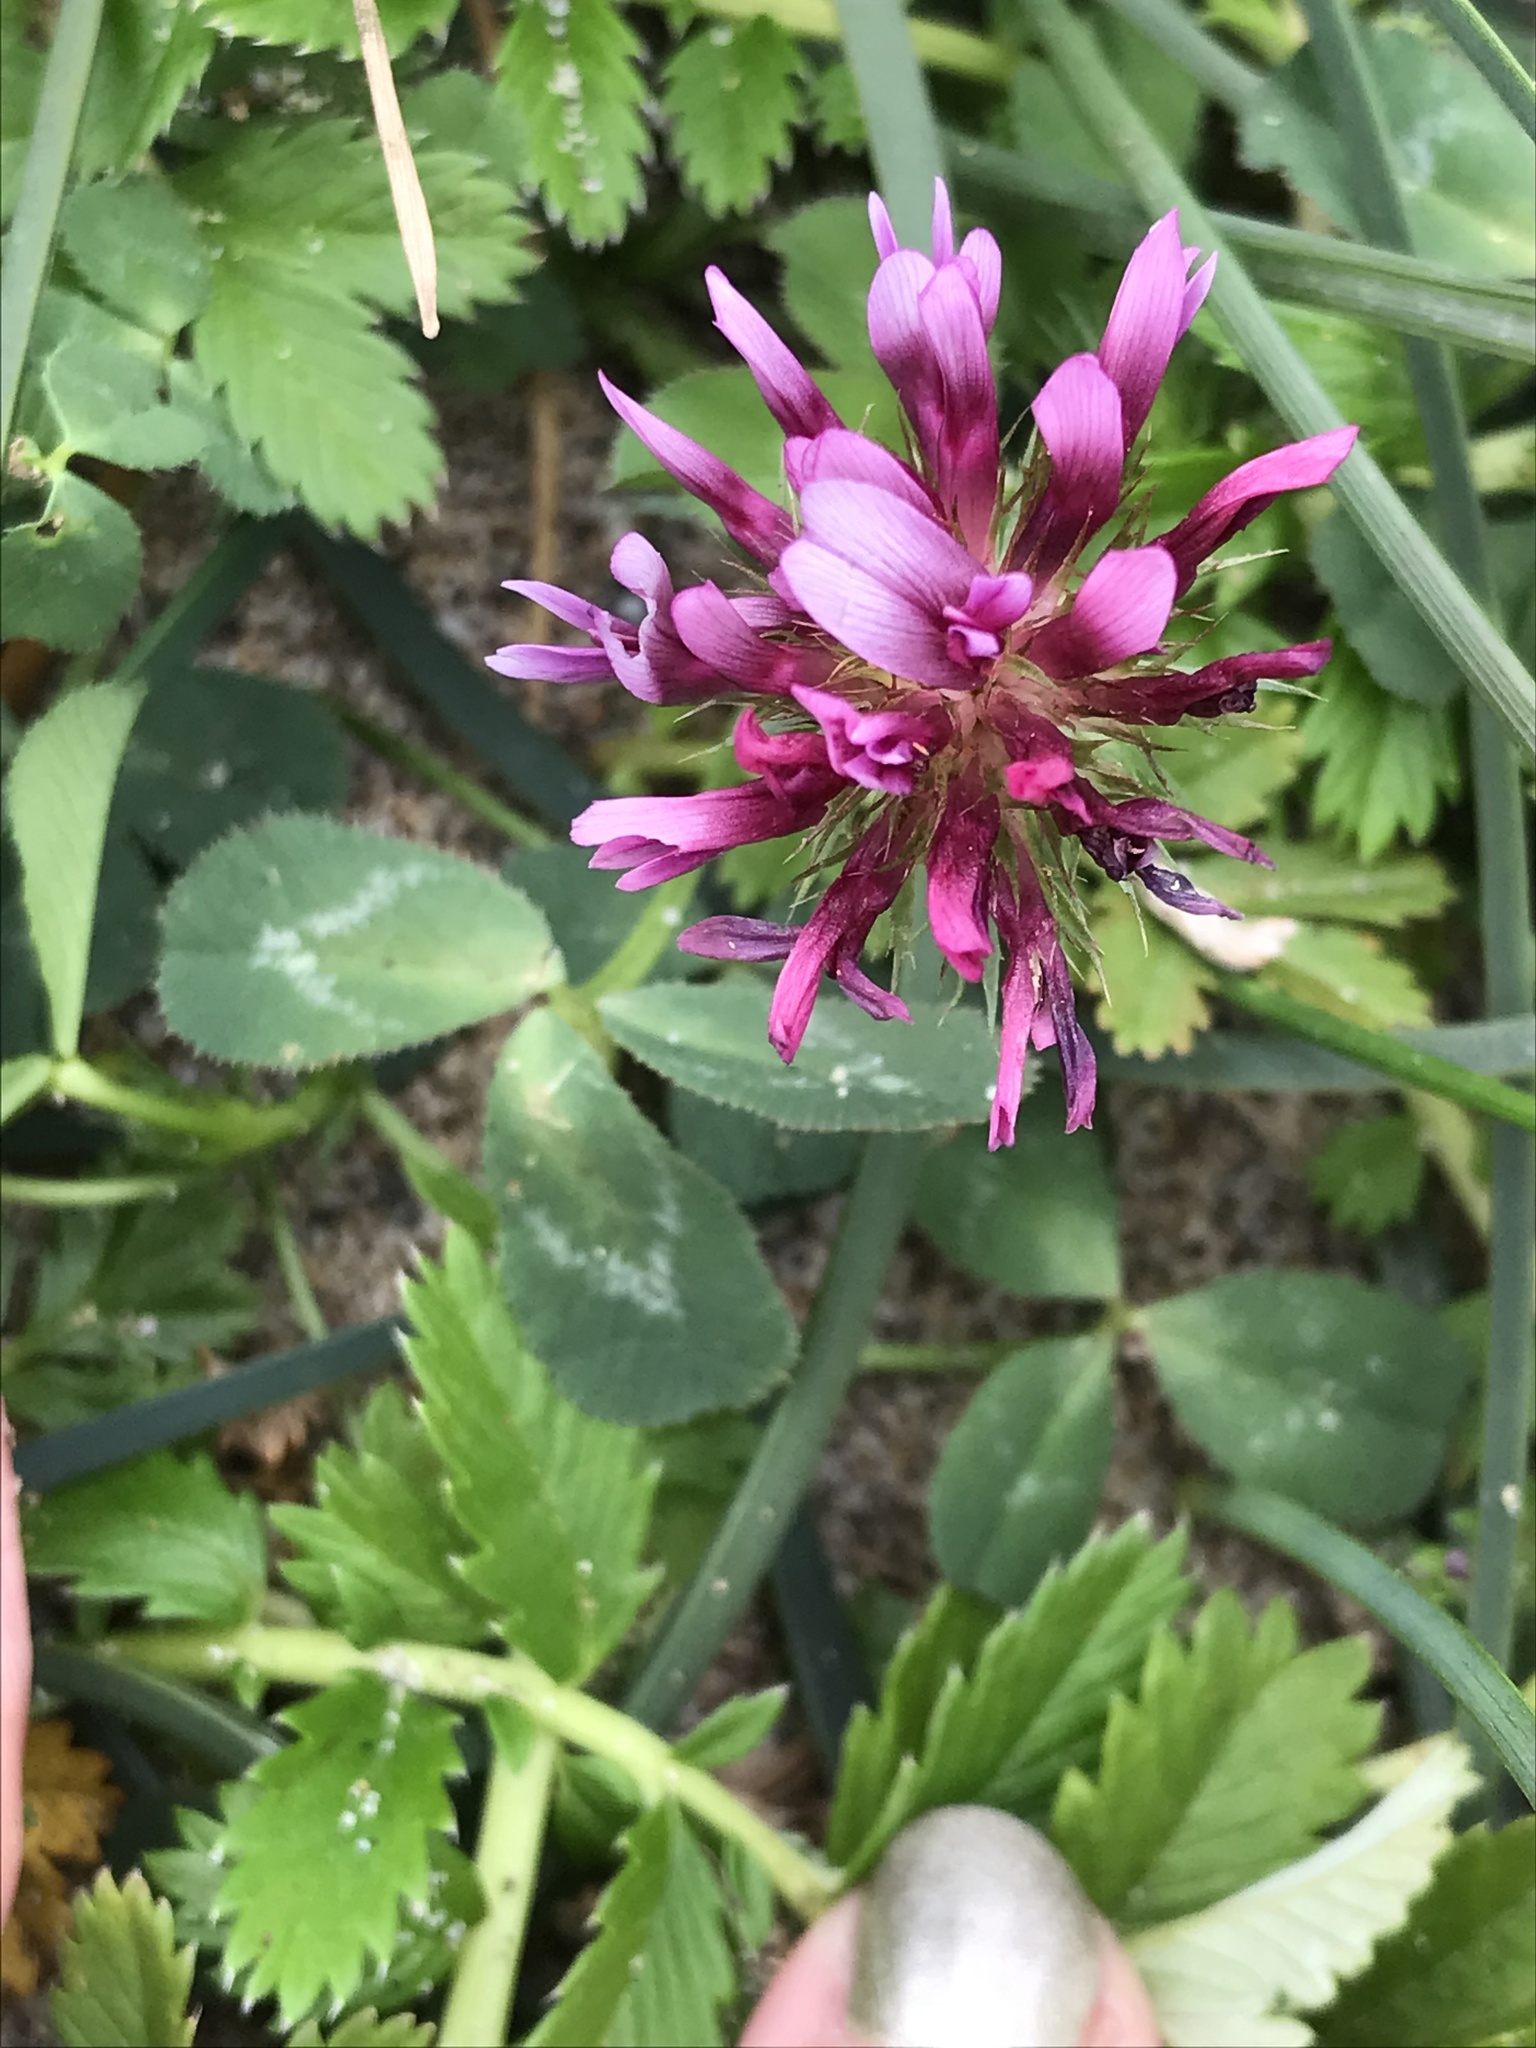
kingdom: Plantae
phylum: Tracheophyta
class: Magnoliopsida
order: Fabales
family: Fabaceae
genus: Trifolium
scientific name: Trifolium wormskioldii
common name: Springbank clover
